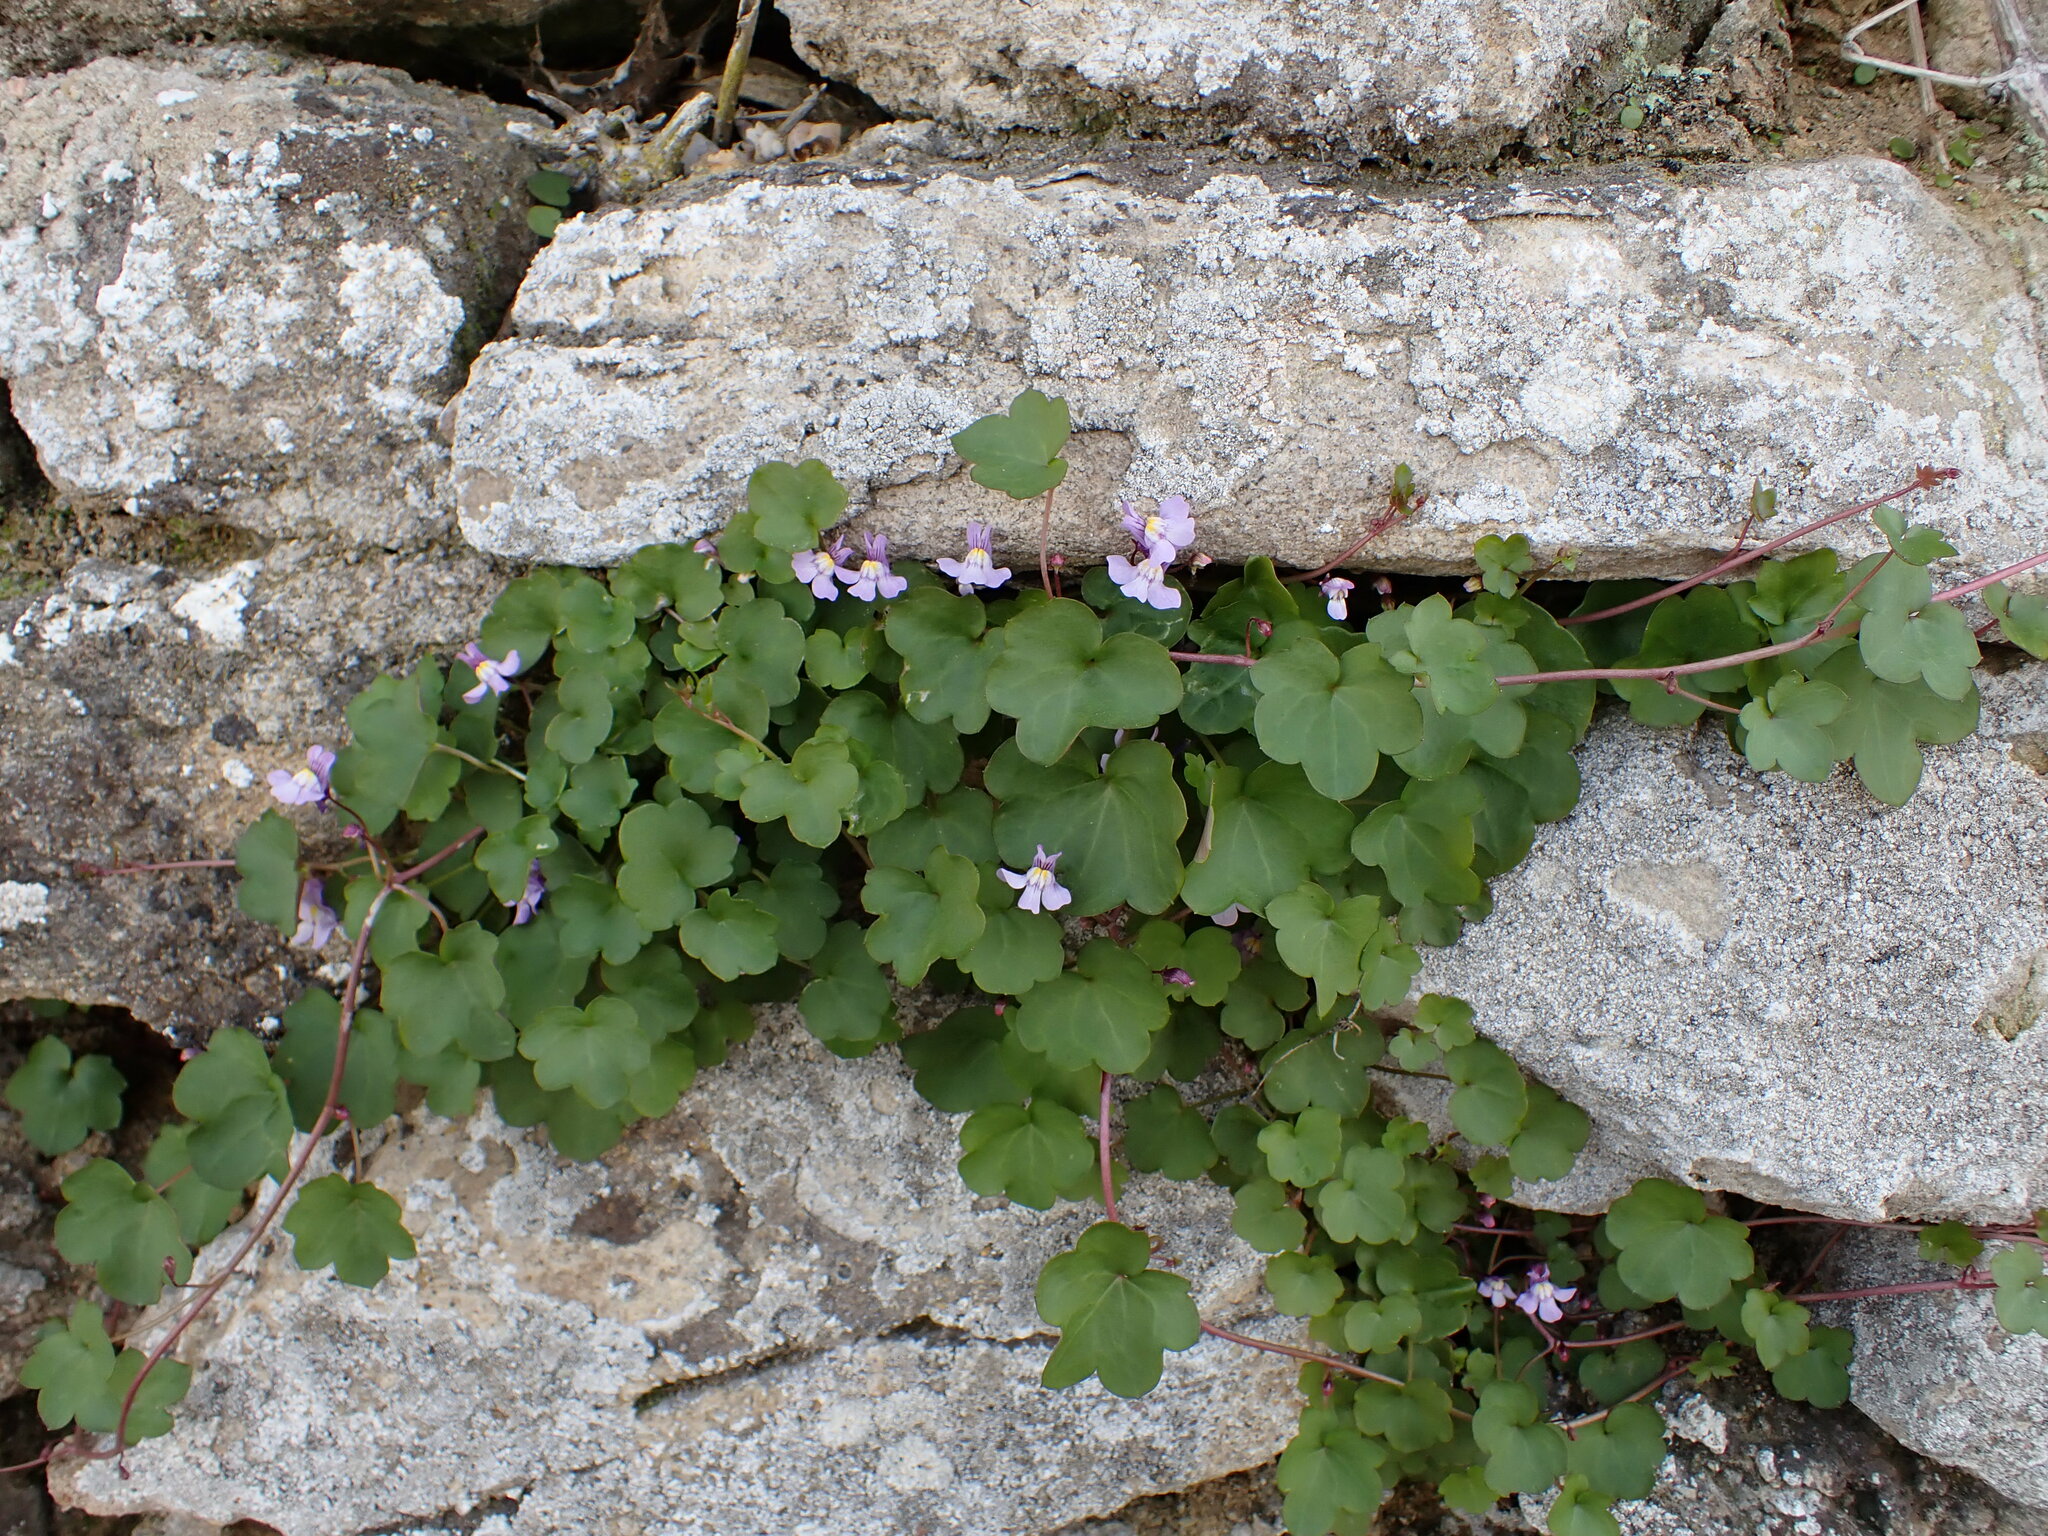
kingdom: Plantae
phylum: Tracheophyta
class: Magnoliopsida
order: Lamiales
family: Plantaginaceae
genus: Cymbalaria
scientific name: Cymbalaria muralis
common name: Ivy-leaved toadflax
